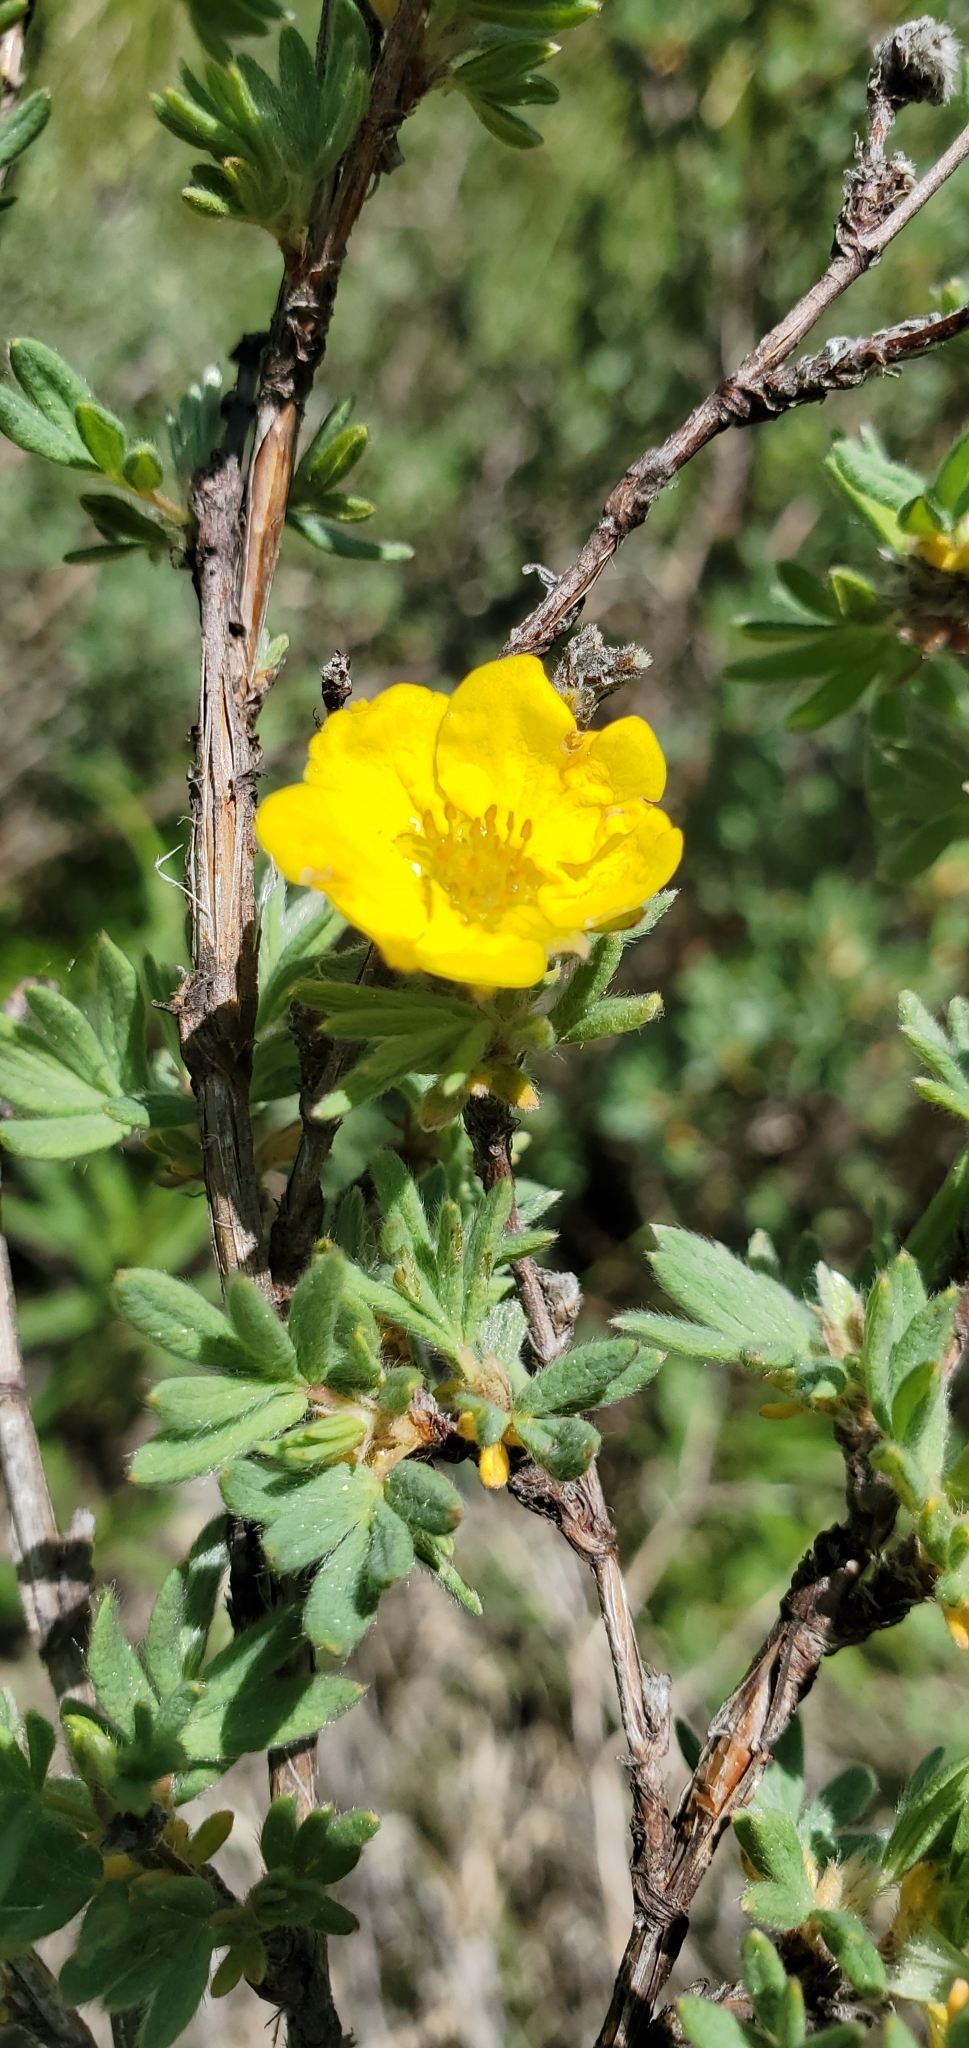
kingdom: Plantae
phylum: Tracheophyta
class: Magnoliopsida
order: Rosales
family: Rosaceae
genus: Dasiphora
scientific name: Dasiphora fruticosa
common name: Shrubby cinquefoil
